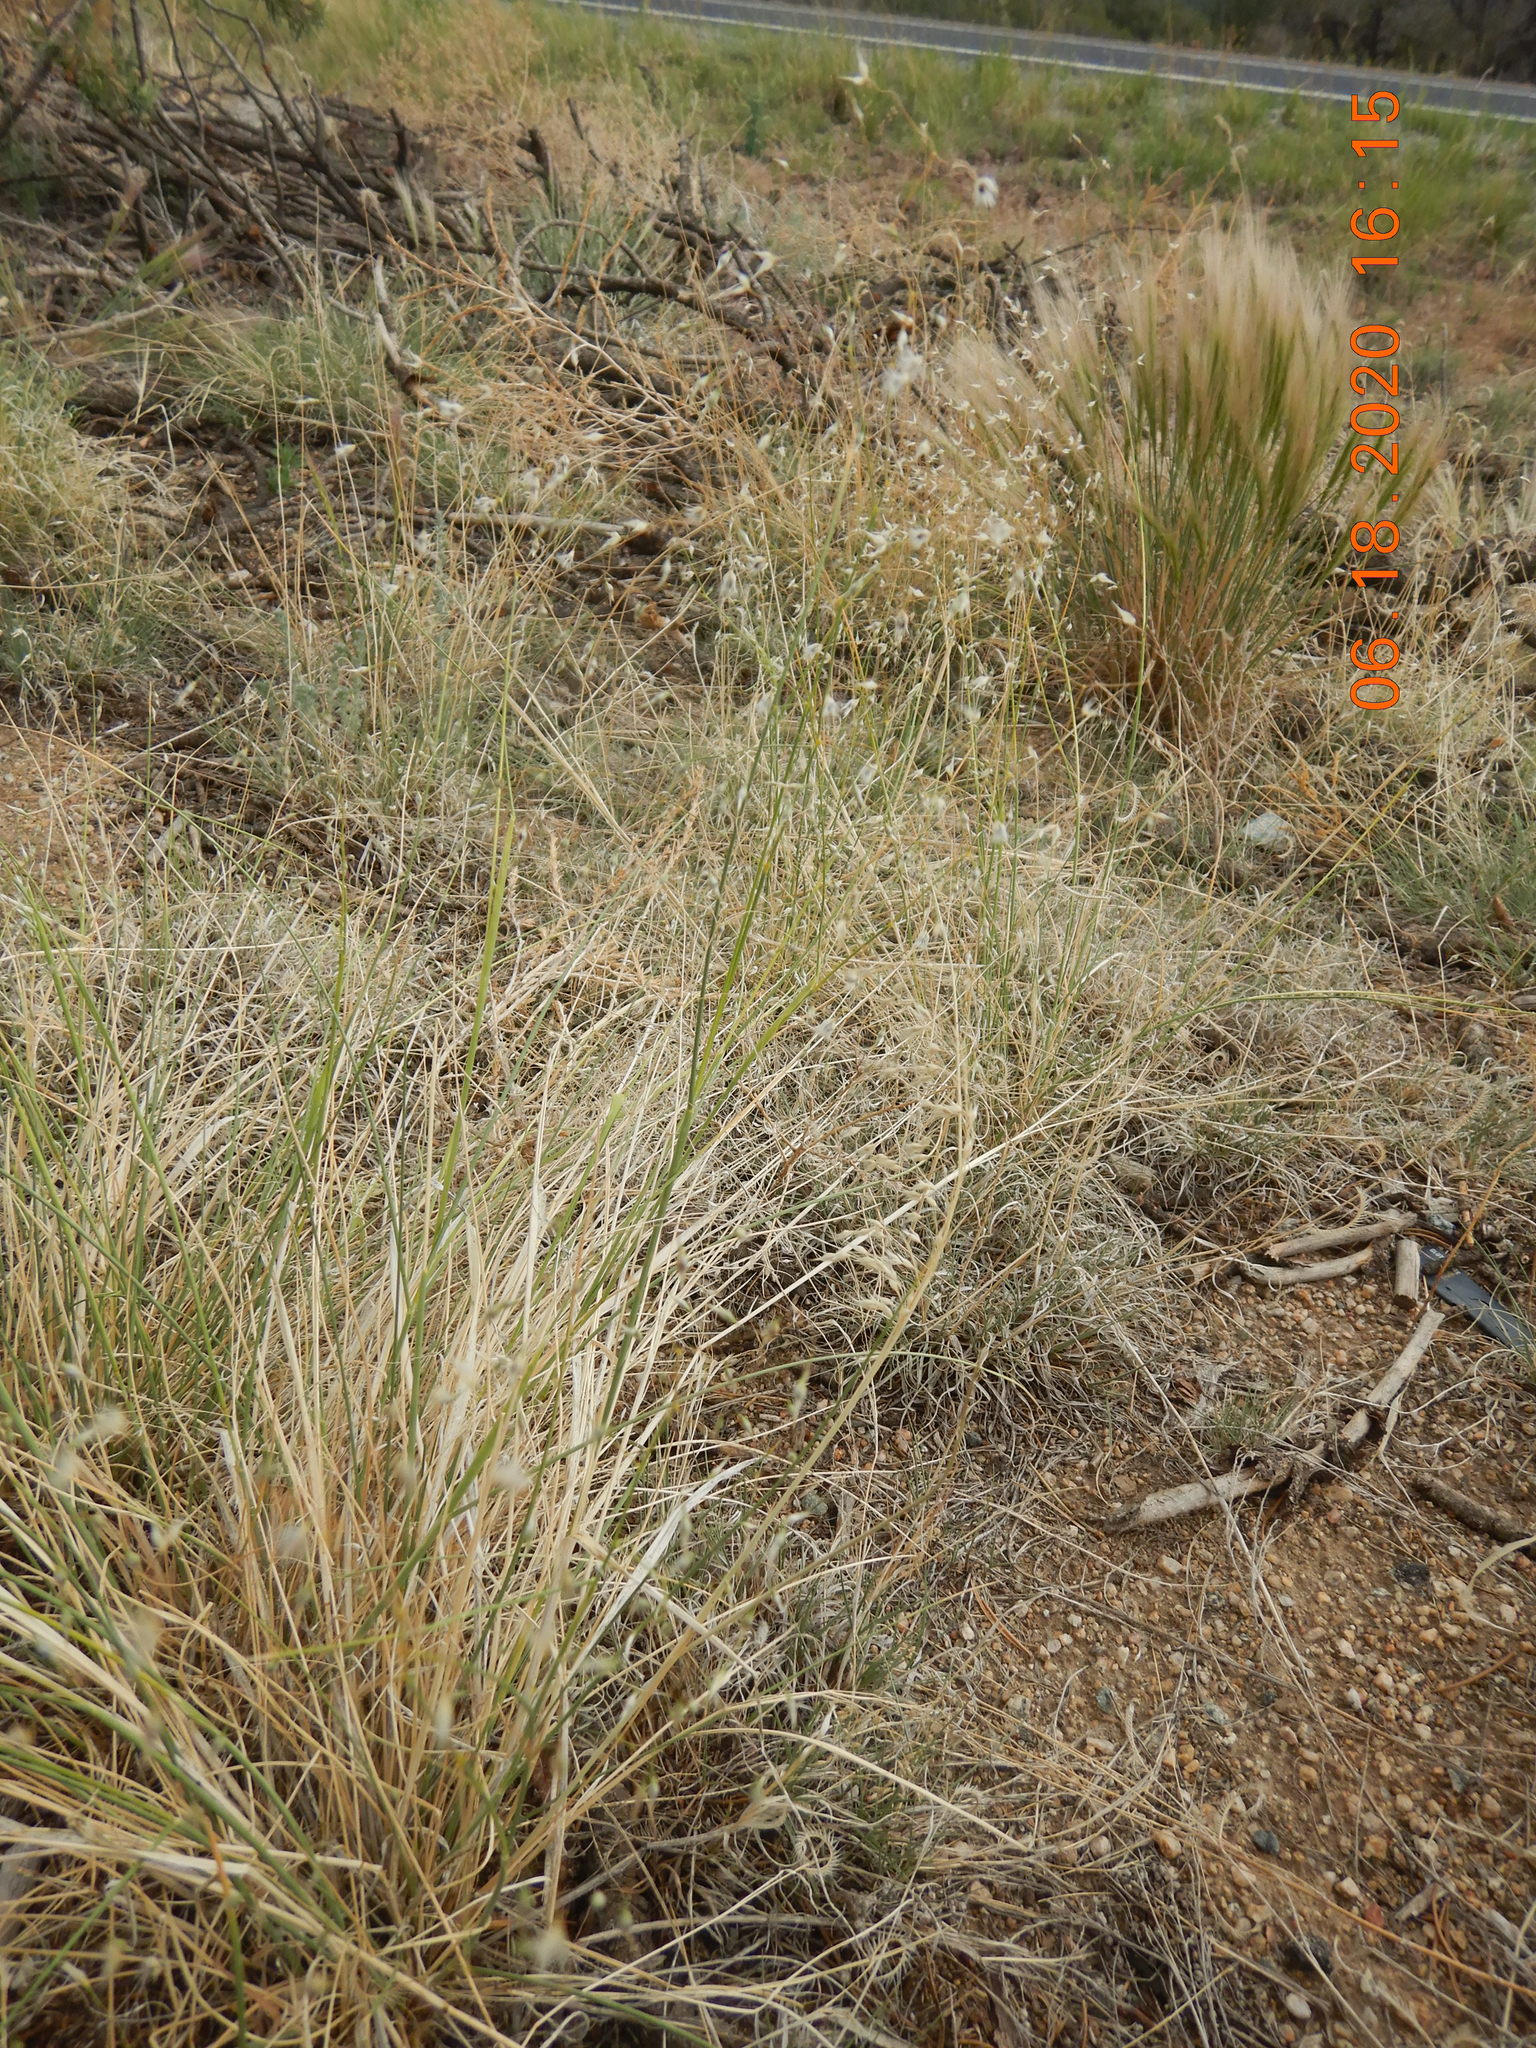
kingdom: Plantae
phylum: Tracheophyta
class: Liliopsida
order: Poales
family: Poaceae
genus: Eriocoma
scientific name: Eriocoma hymenoides
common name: Indian mountain ricegrass
